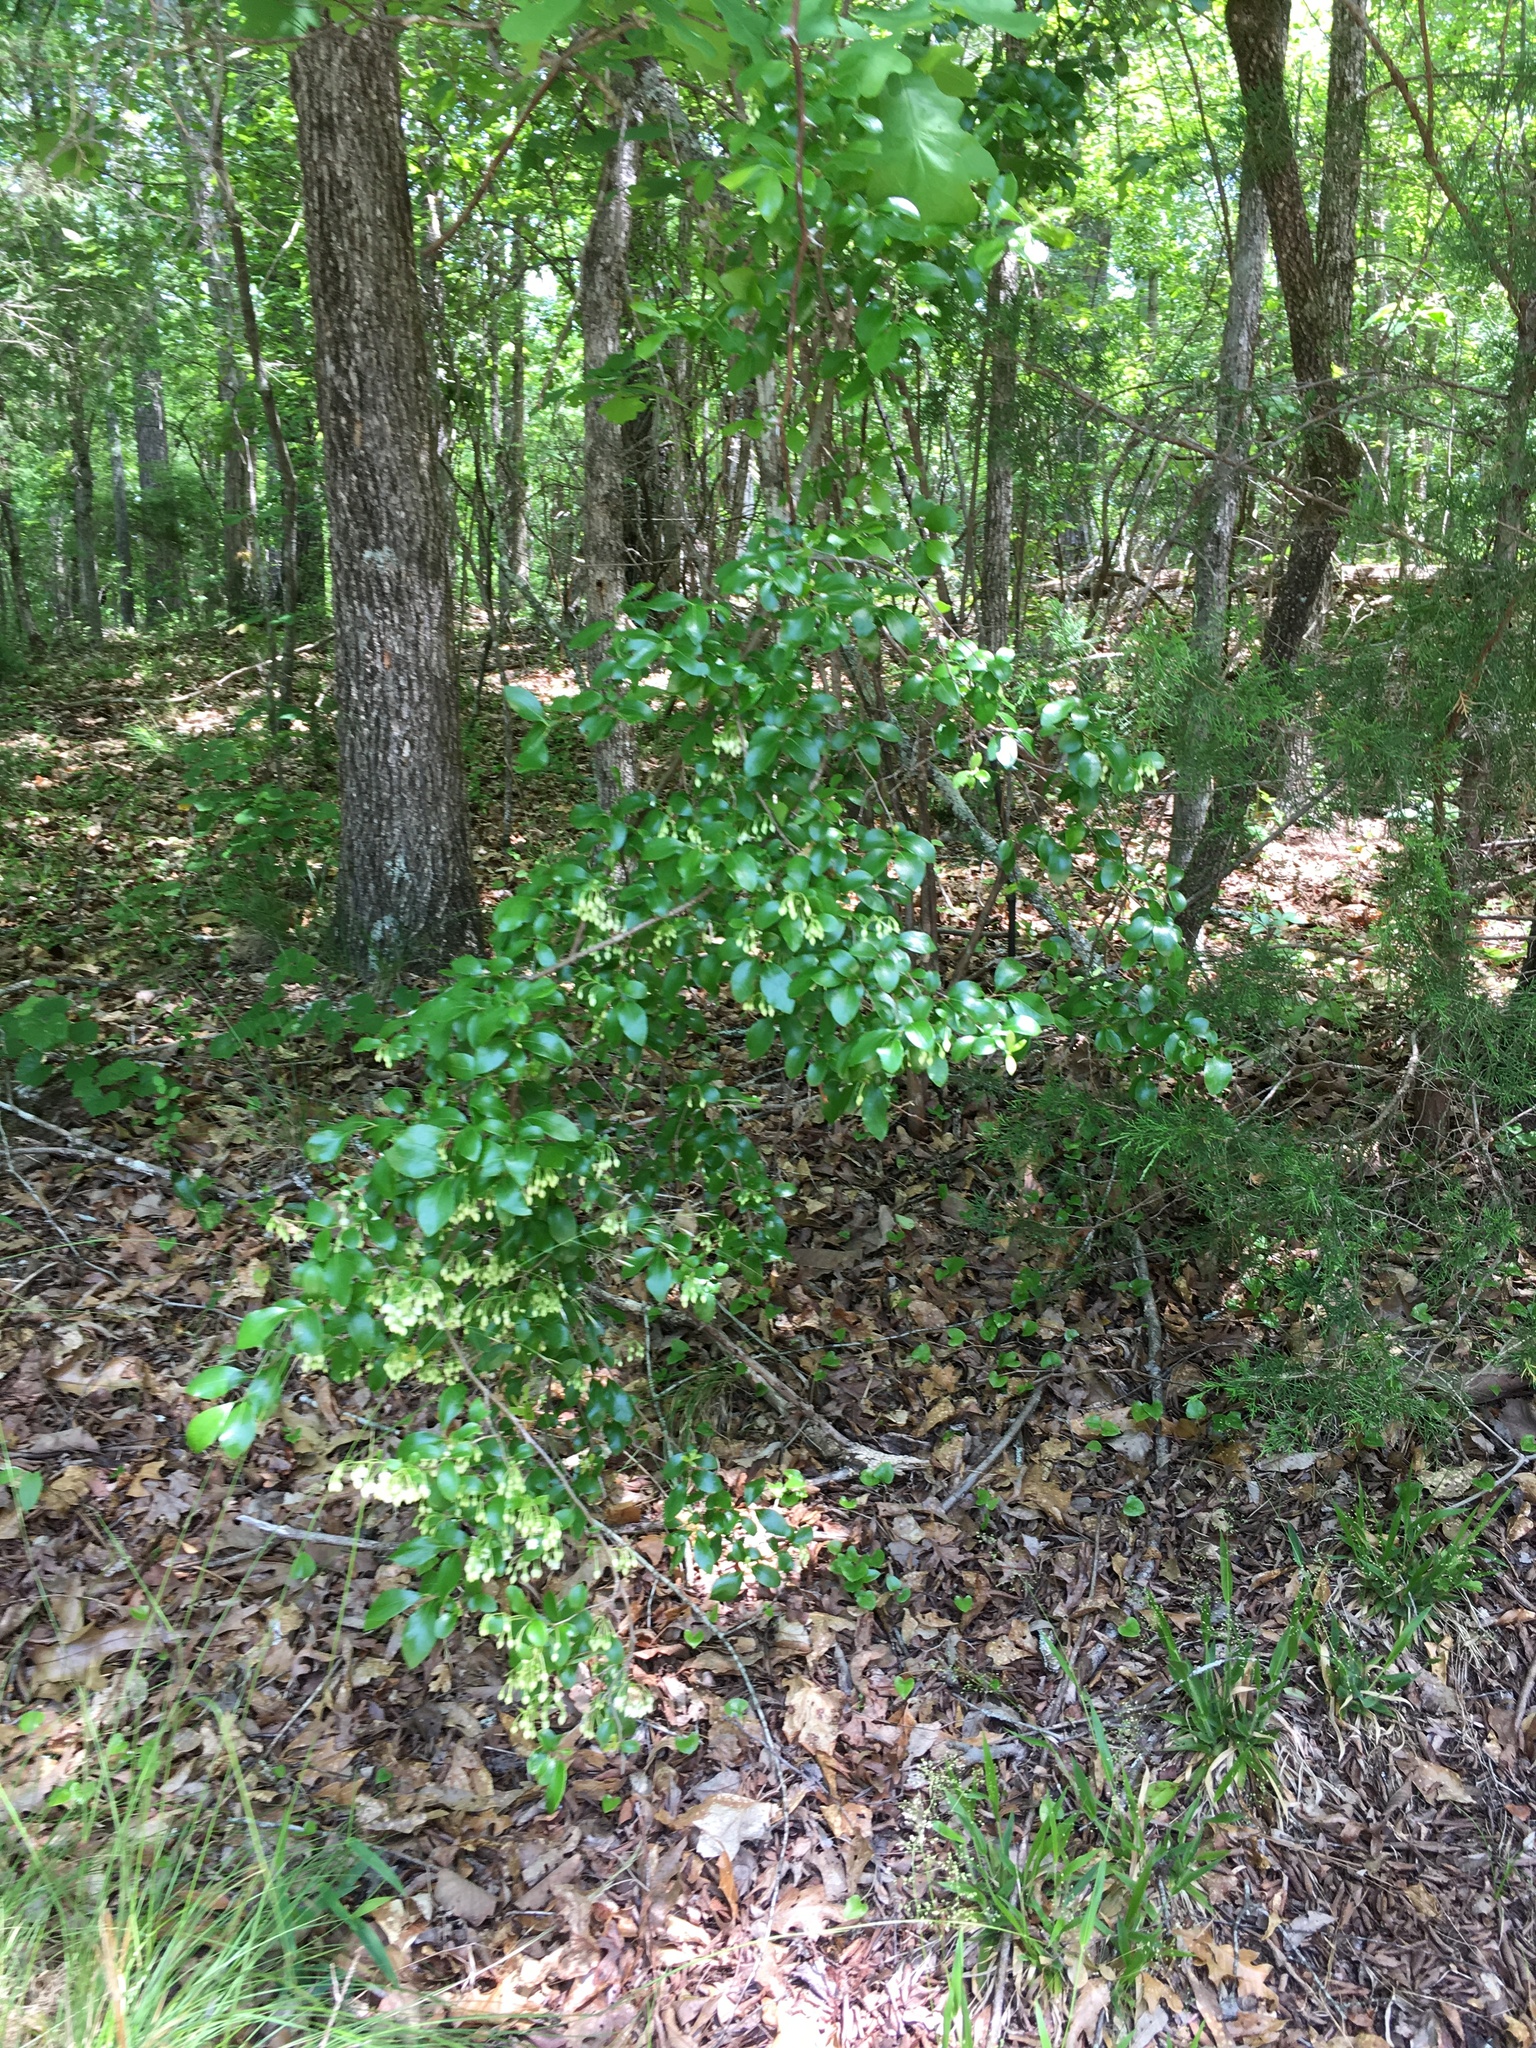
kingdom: Plantae
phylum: Tracheophyta
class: Magnoliopsida
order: Ericales
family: Ericaceae
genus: Vaccinium
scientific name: Vaccinium arboreum
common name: Farkleberry
